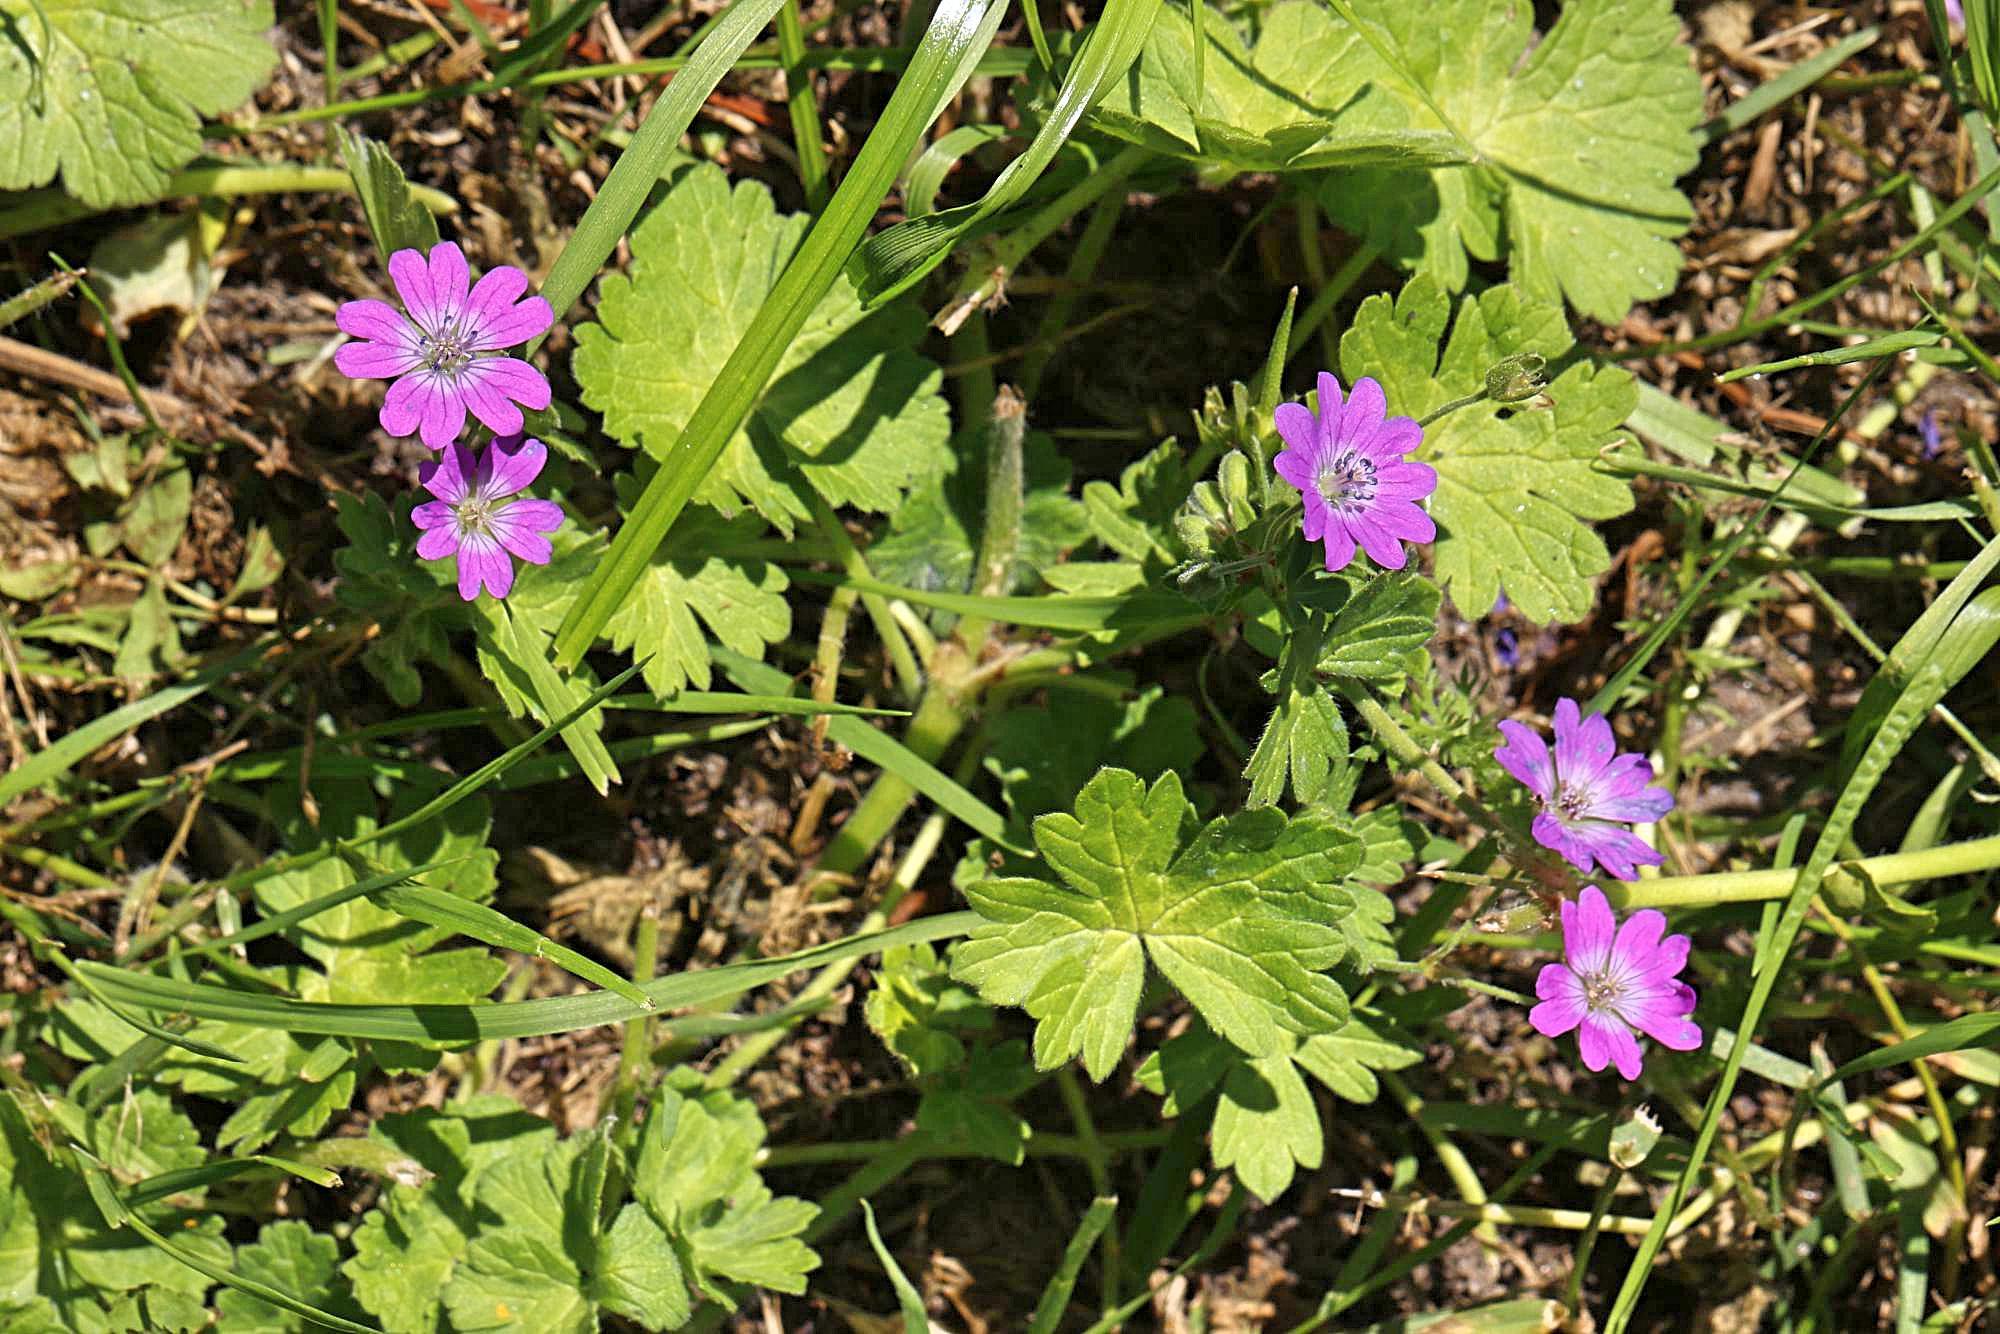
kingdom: Plantae
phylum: Tracheophyta
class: Magnoliopsida
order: Geraniales
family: Geraniaceae
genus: Geranium
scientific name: Geranium pyrenaicum
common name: Hedgerow crane's-bill
